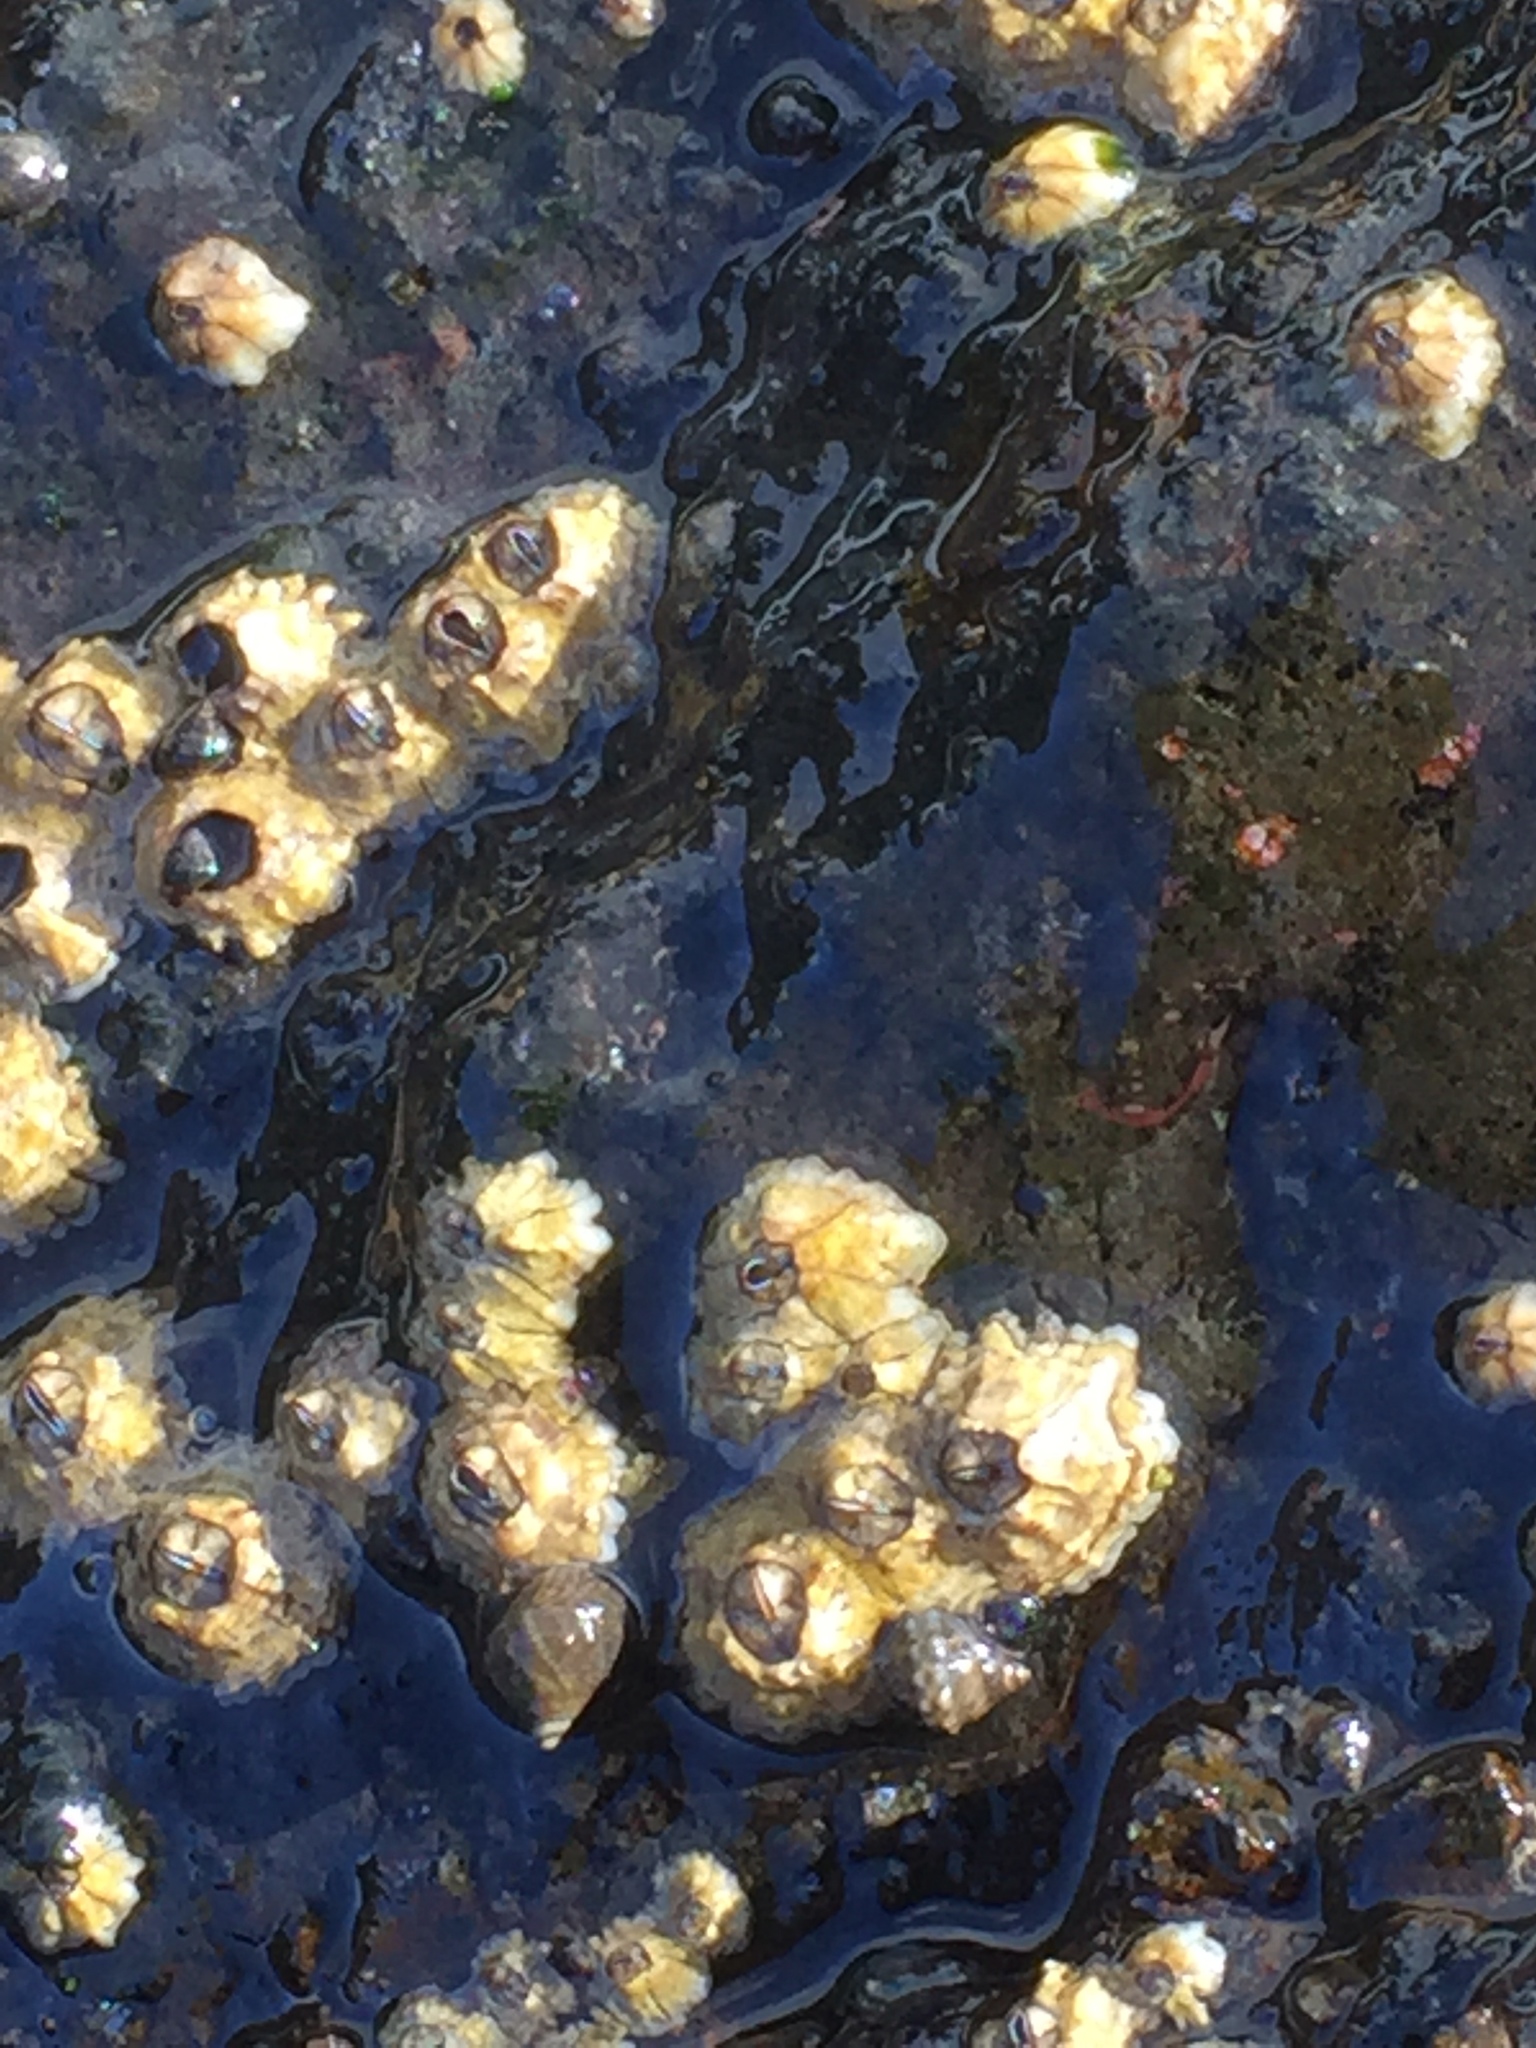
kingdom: Animalia
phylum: Arthropoda
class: Maxillopoda
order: Sessilia
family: Chthamalidae
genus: Chthamalus
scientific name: Chthamalus stellatus
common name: Poli's stellate barnacle
